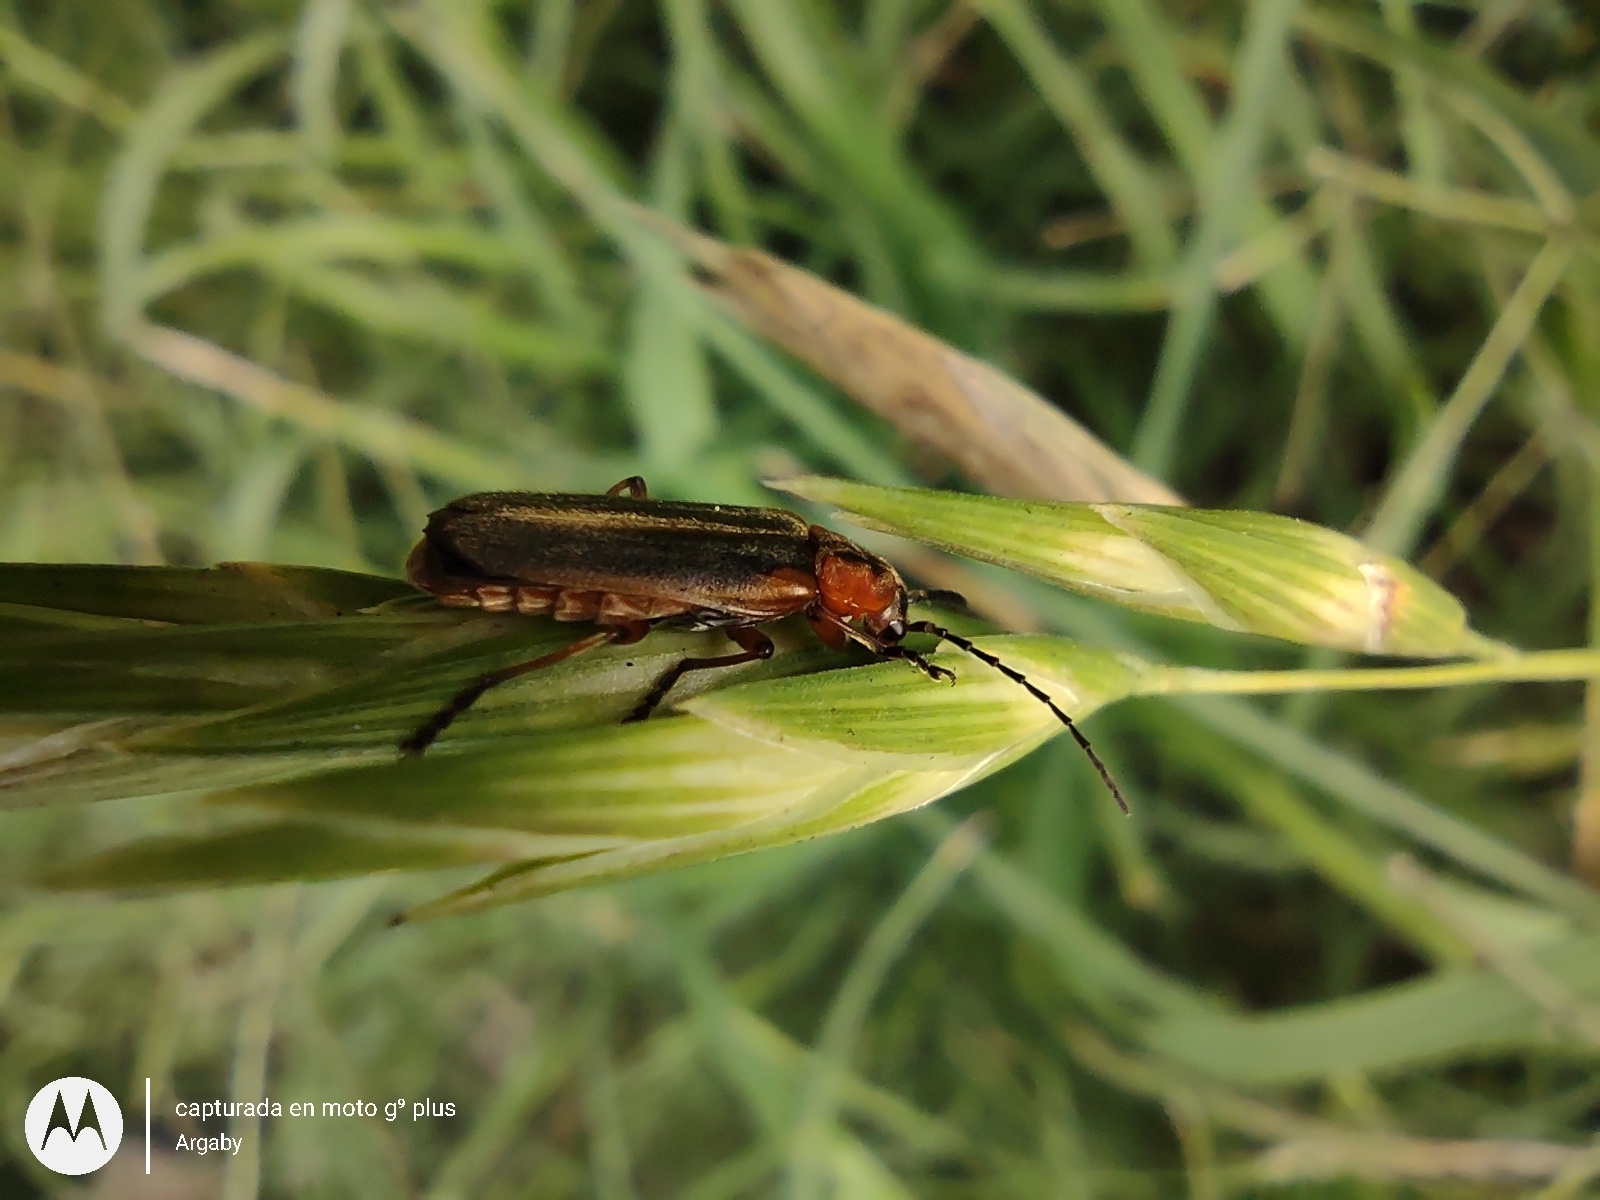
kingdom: Animalia
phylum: Arthropoda
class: Insecta
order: Coleoptera
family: Cantharidae
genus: Discodon
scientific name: Discodon
